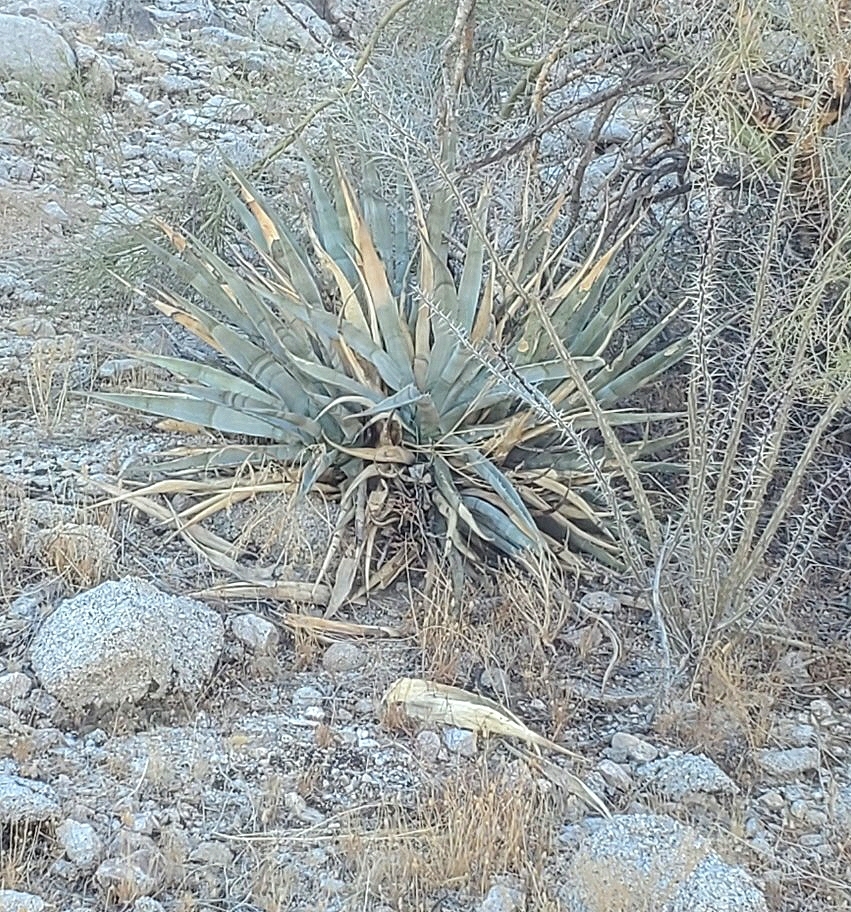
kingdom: Plantae
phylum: Tracheophyta
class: Liliopsida
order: Asparagales
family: Asparagaceae
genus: Agave
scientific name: Agave simplex
